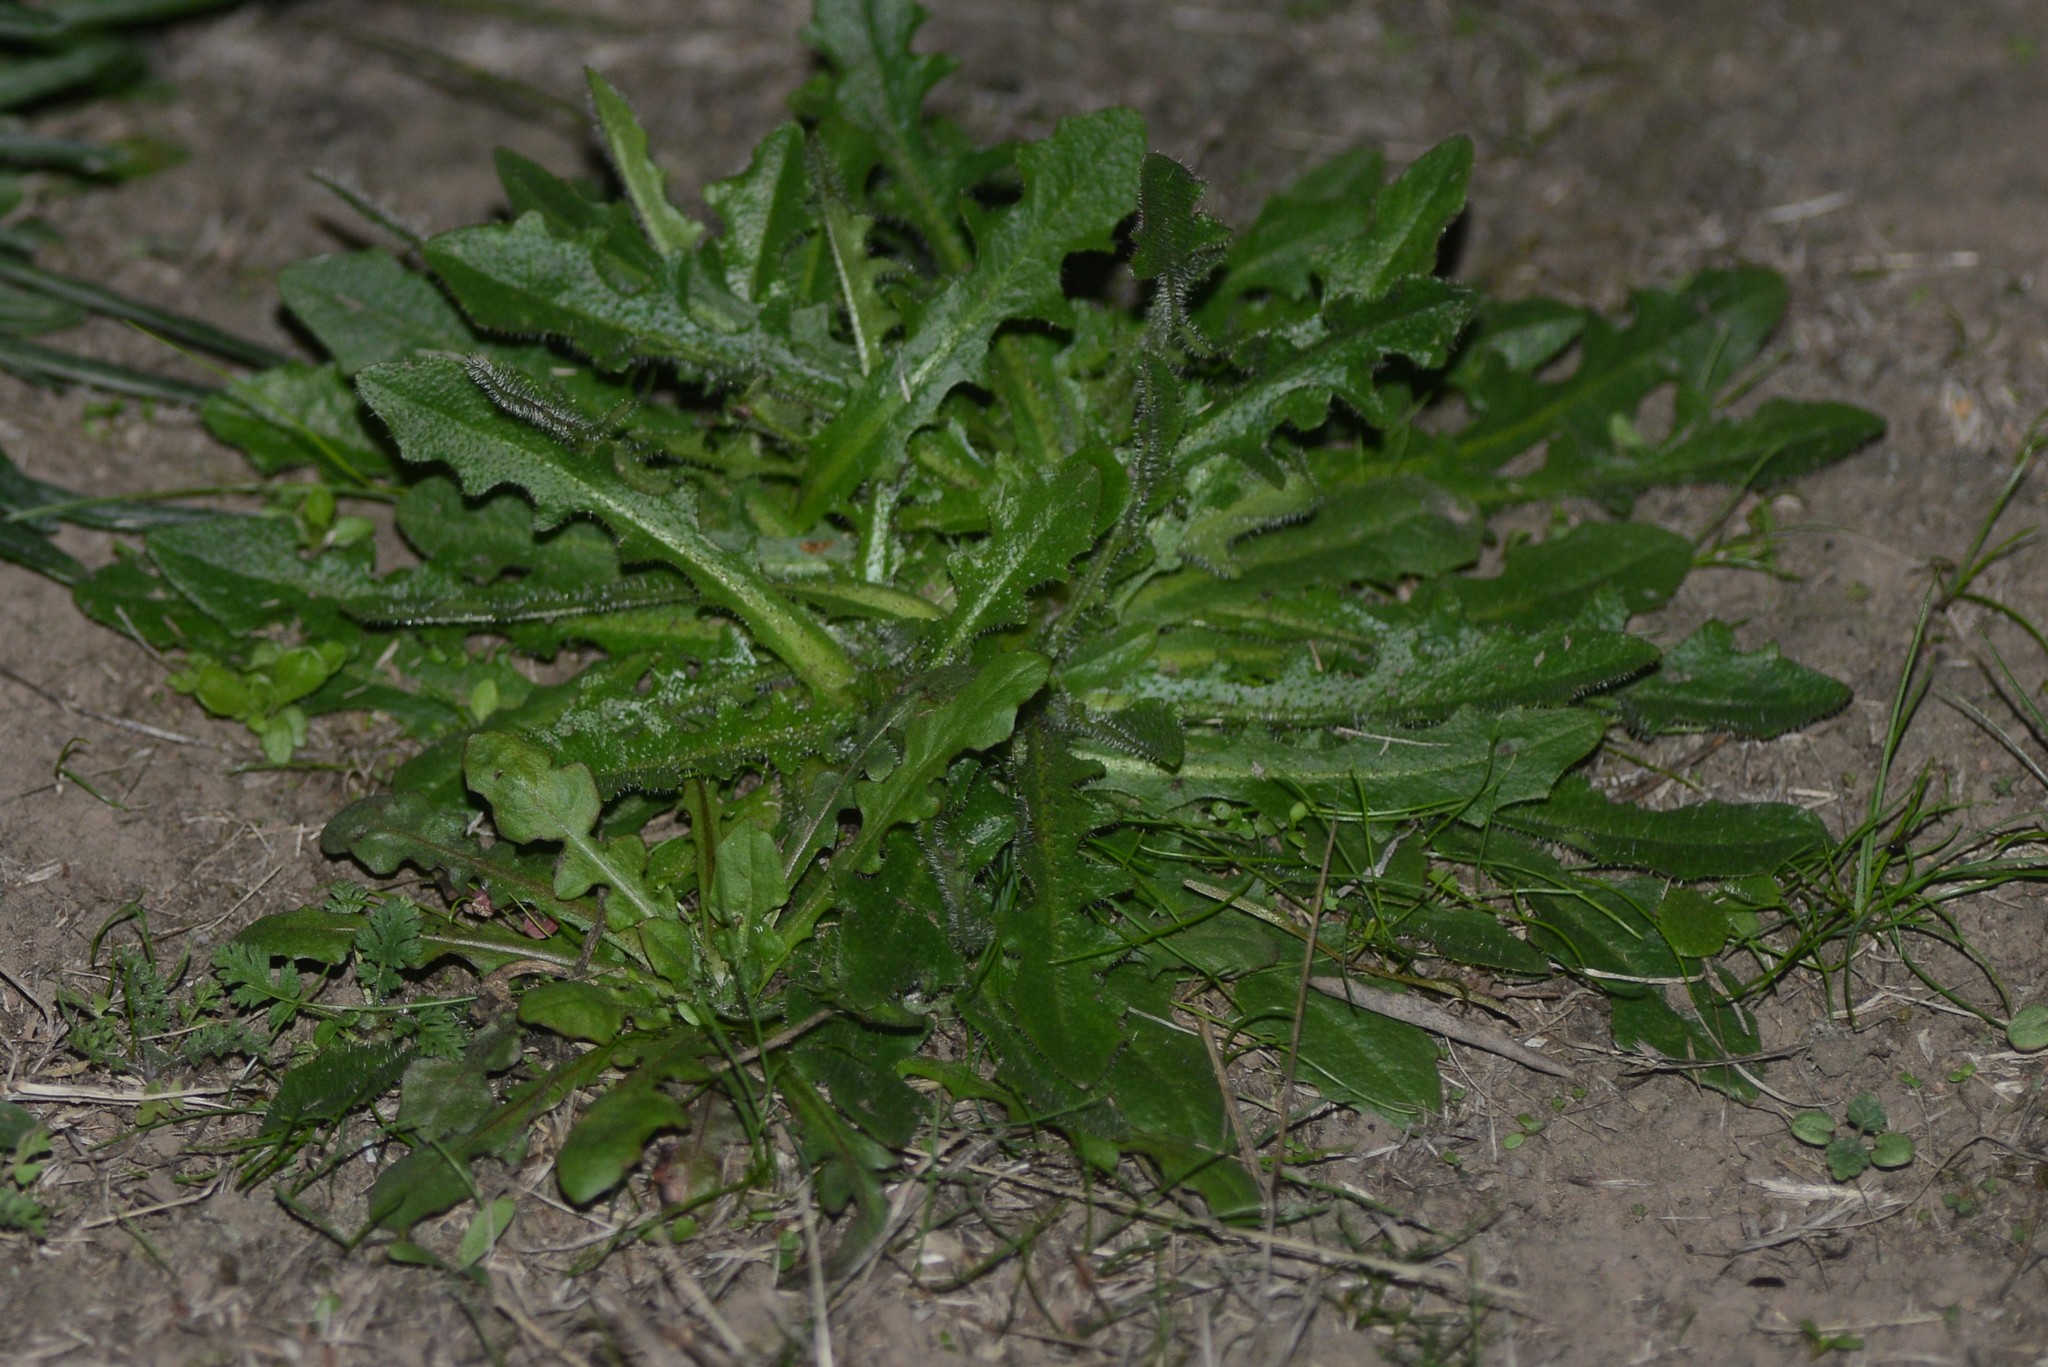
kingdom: Plantae
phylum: Tracheophyta
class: Magnoliopsida
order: Asterales
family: Asteraceae
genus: Hypochaeris
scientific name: Hypochaeris radicata
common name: Flatweed
